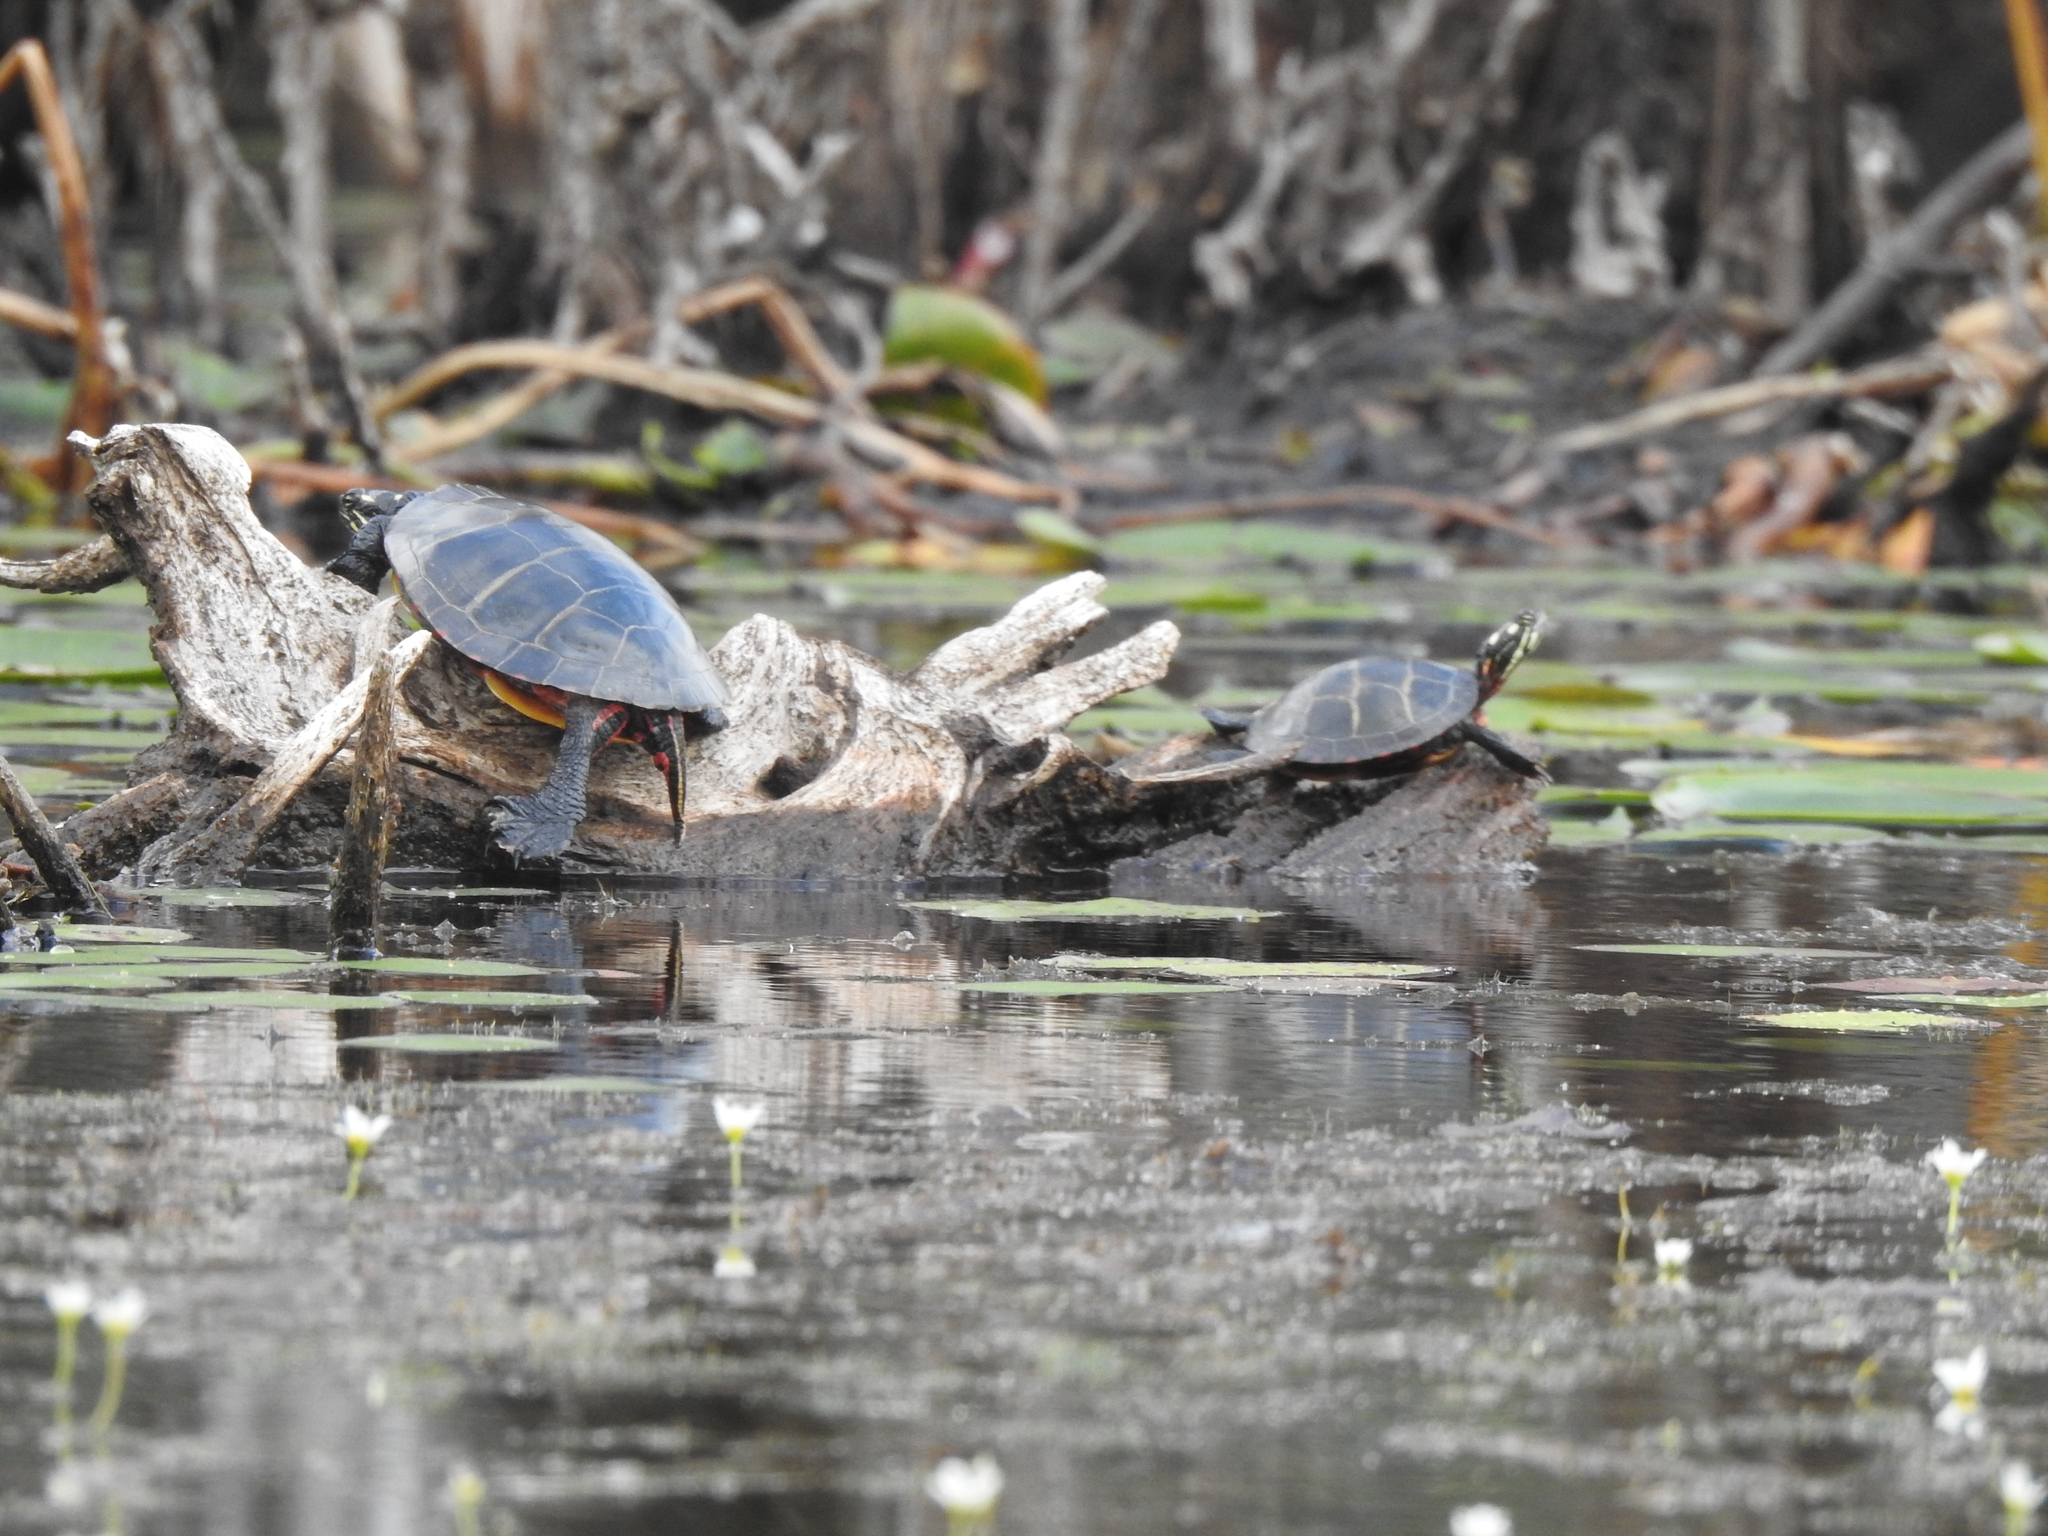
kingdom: Animalia
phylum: Chordata
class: Testudines
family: Emydidae
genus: Chrysemys
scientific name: Chrysemys picta
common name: Painted turtle
